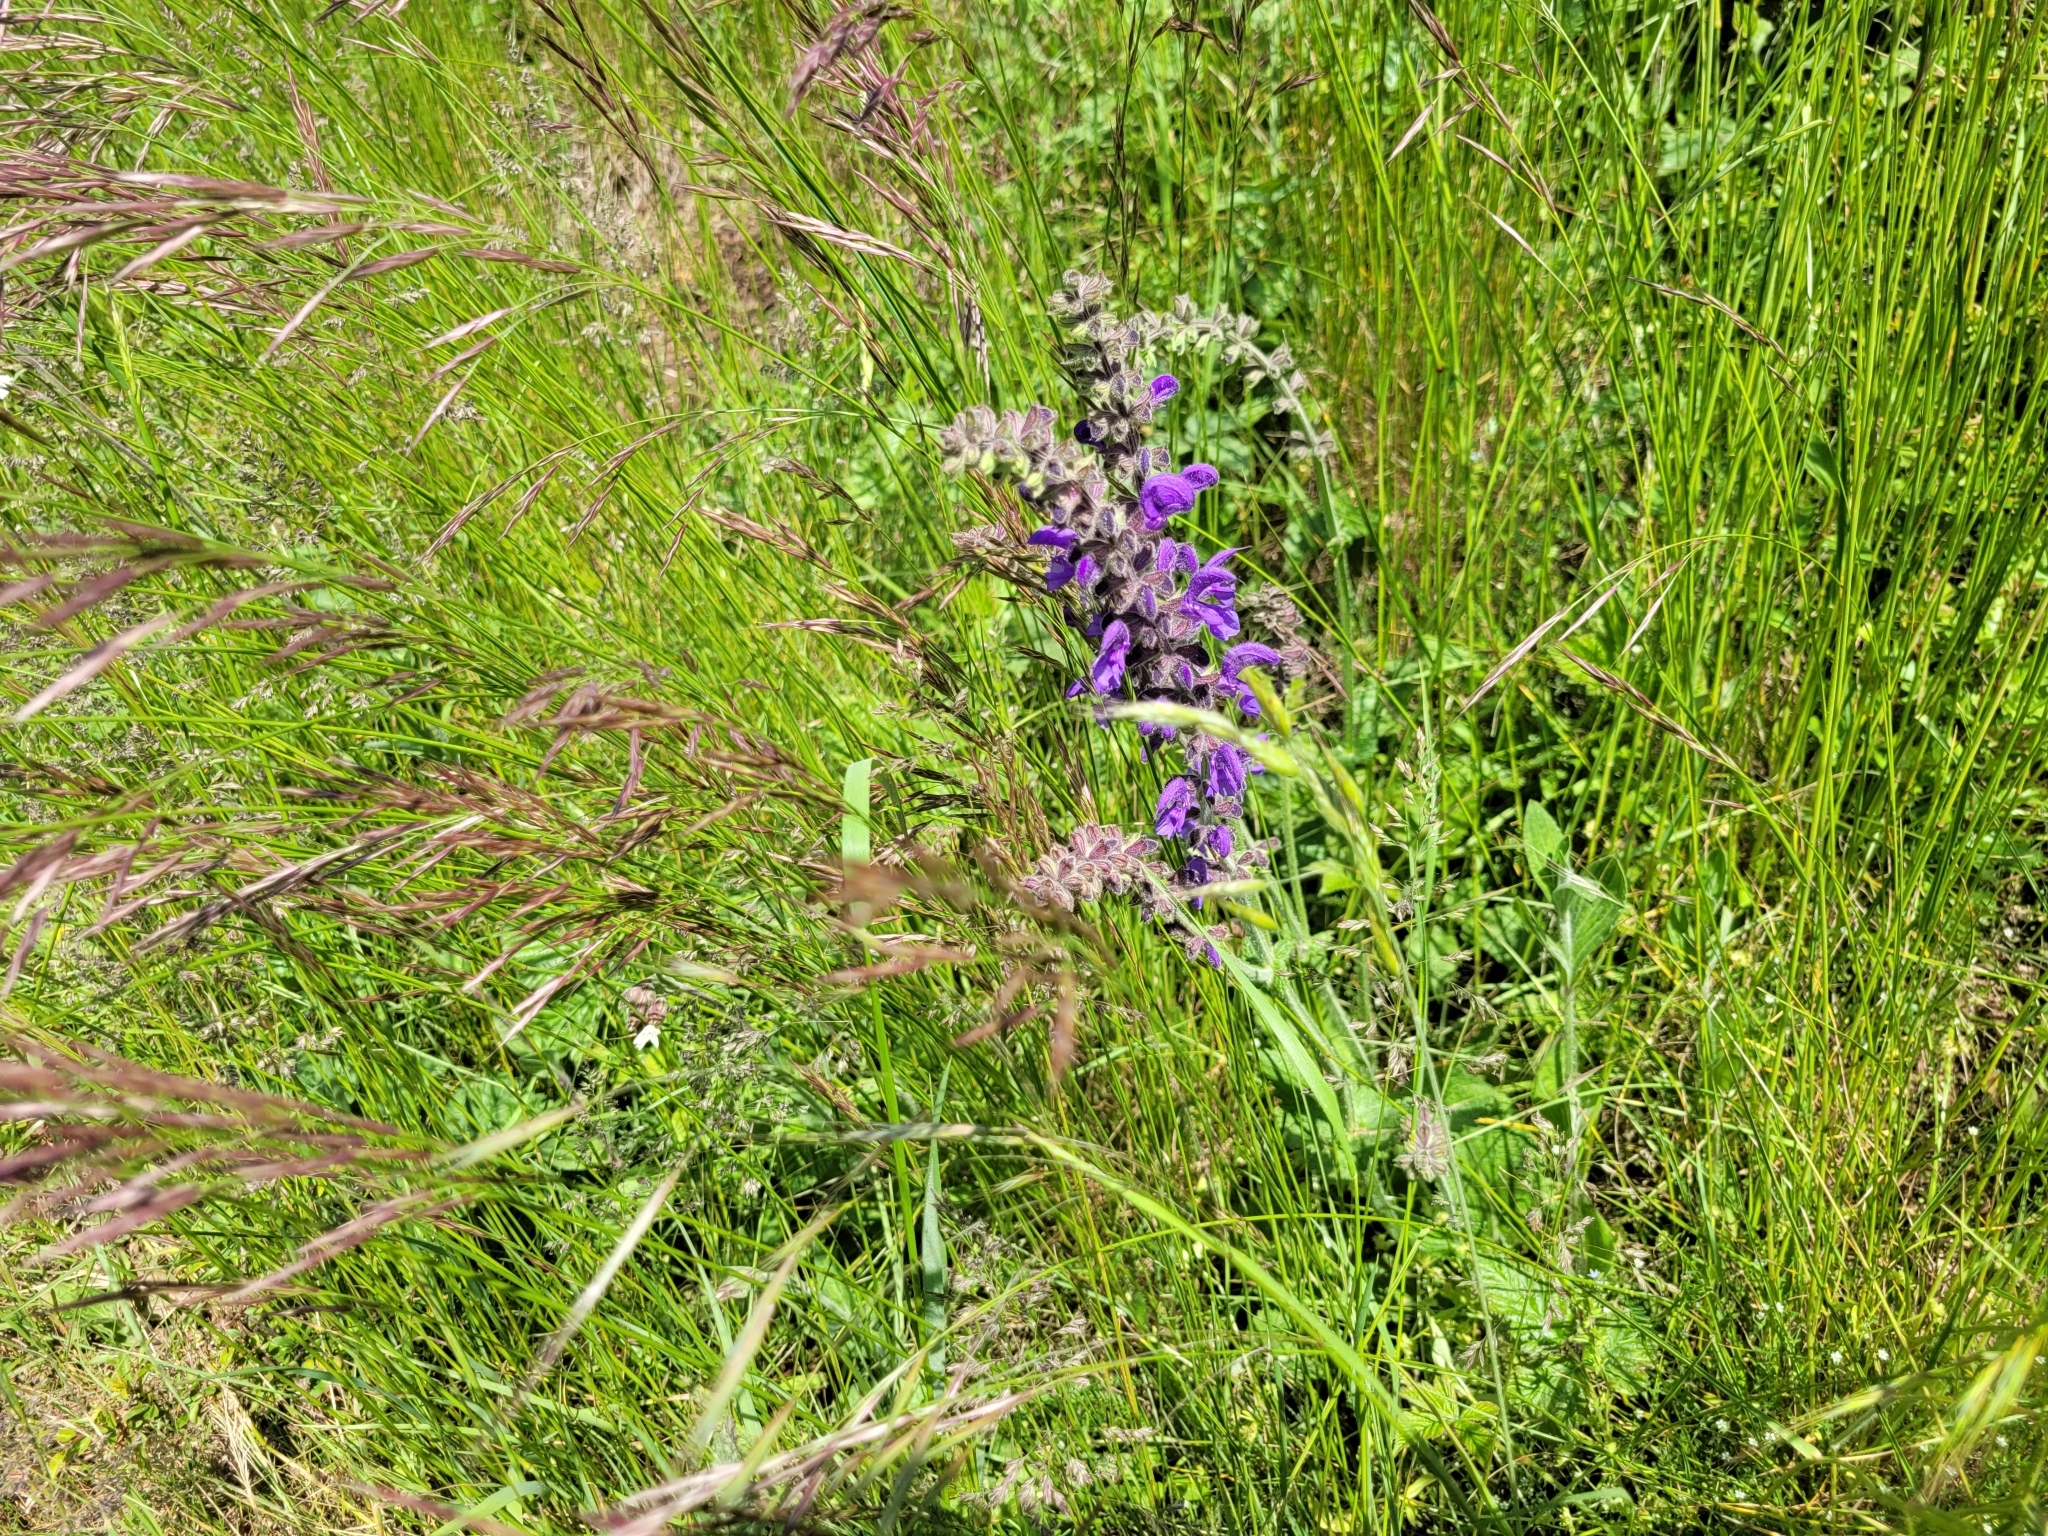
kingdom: Plantae
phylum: Tracheophyta
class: Magnoliopsida
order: Lamiales
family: Lamiaceae
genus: Salvia
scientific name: Salvia pratensis
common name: Meadow sage
